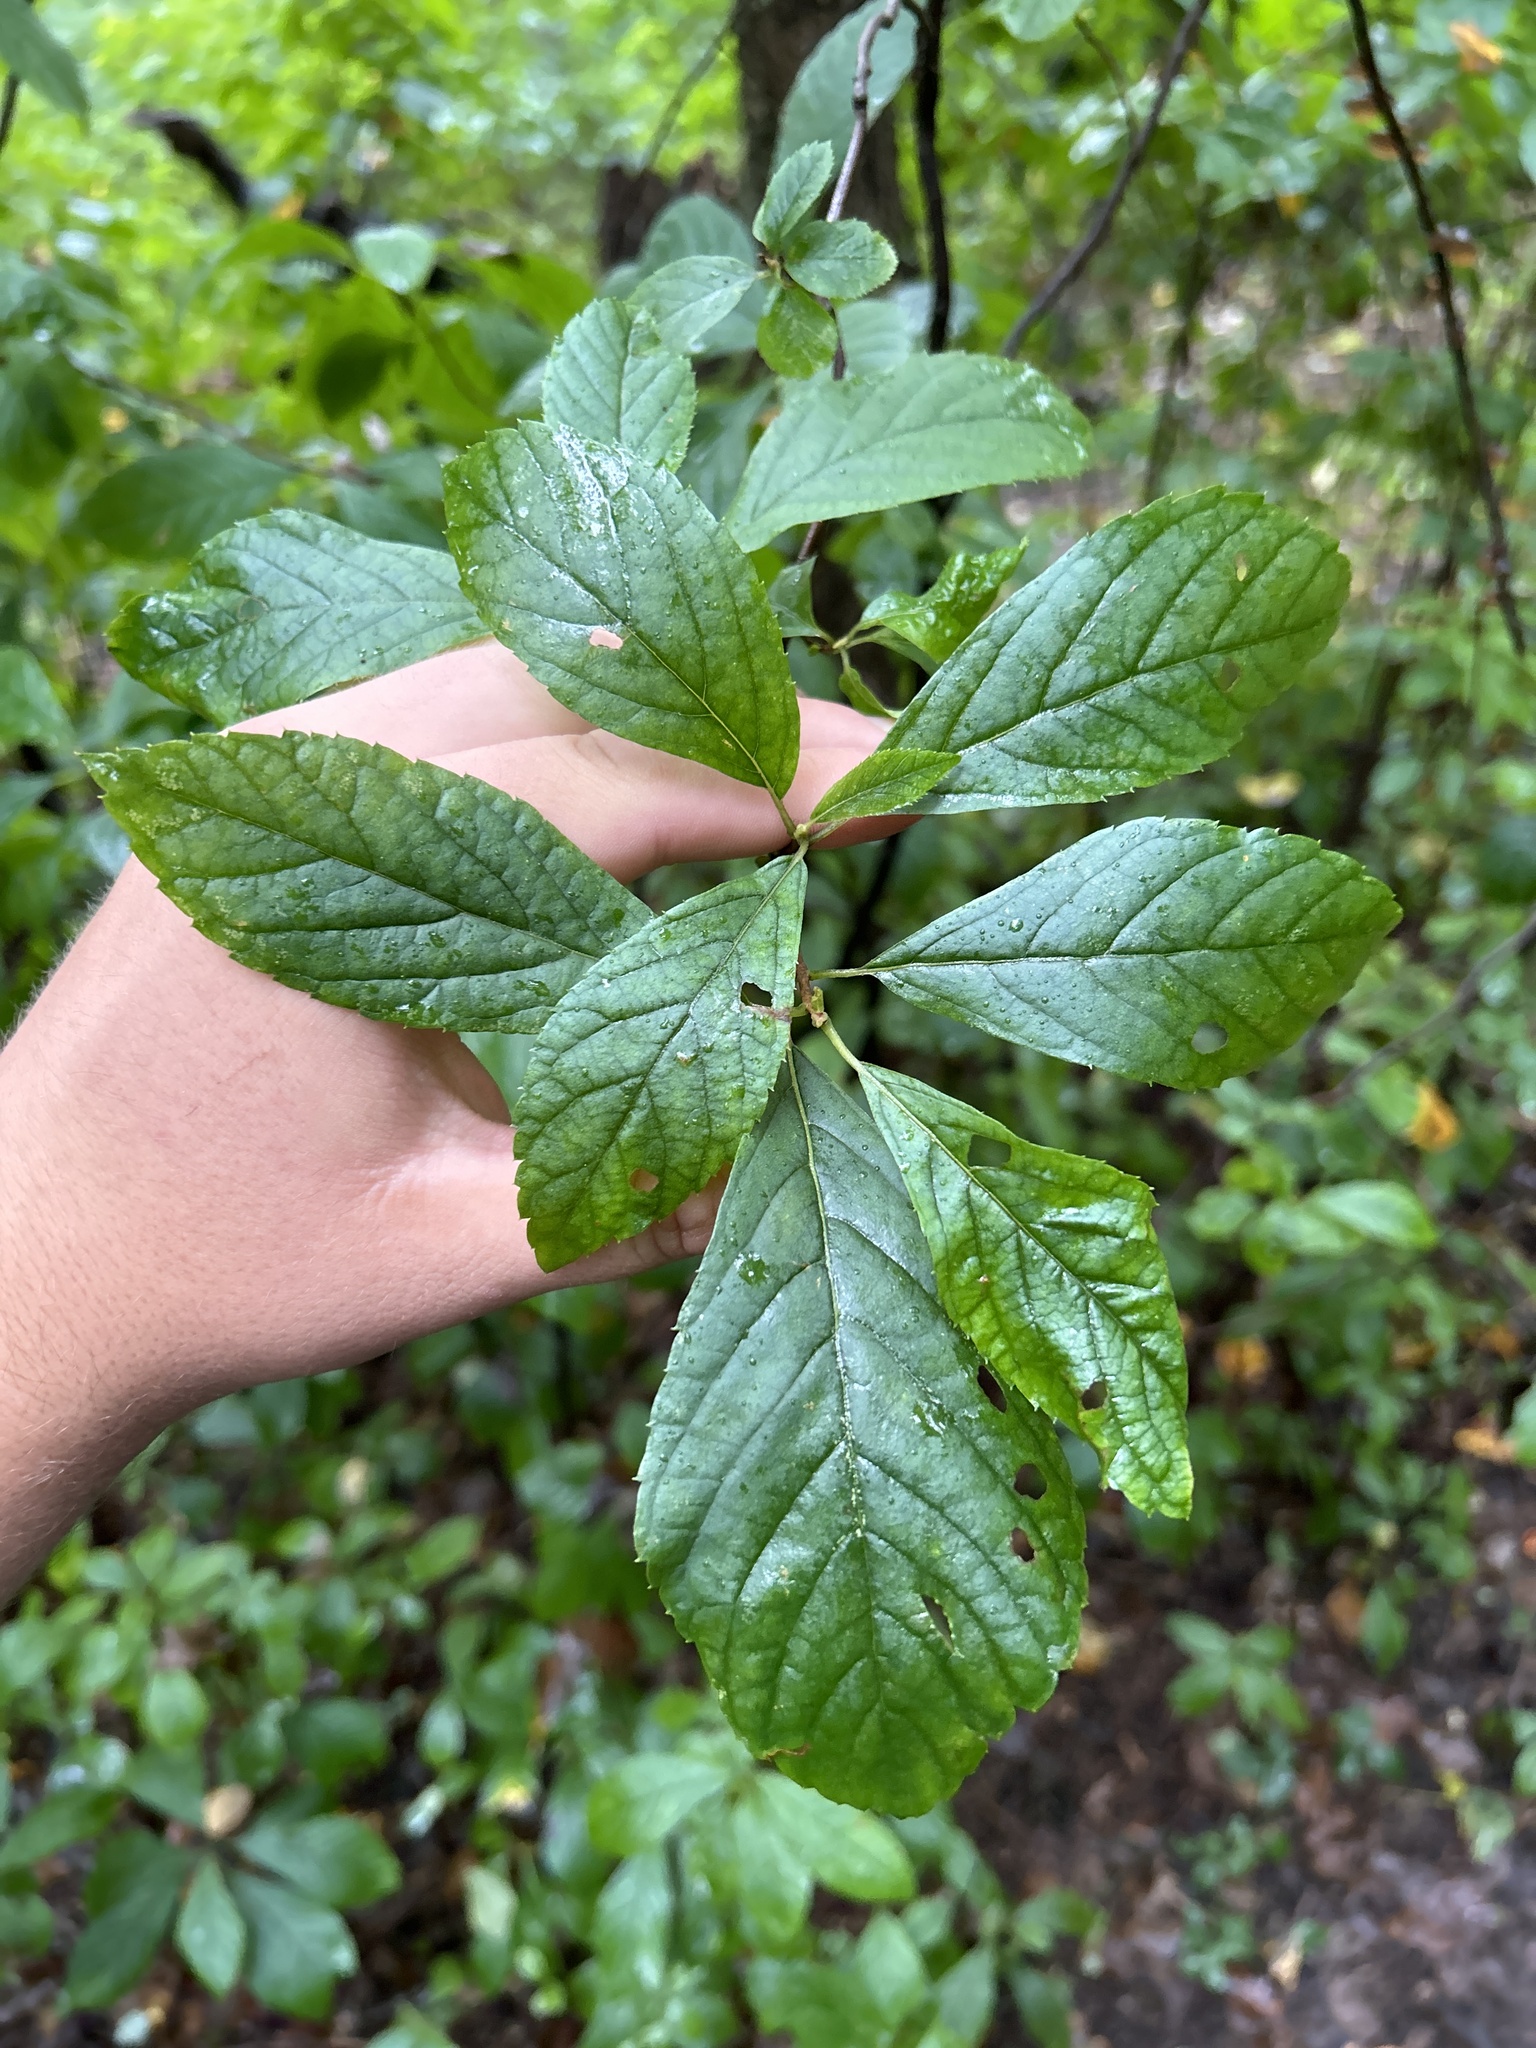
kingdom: Plantae
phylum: Tracheophyta
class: Magnoliopsida
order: Ericales
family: Clethraceae
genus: Clethra
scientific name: Clethra alnifolia
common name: Sweet pepperbush
